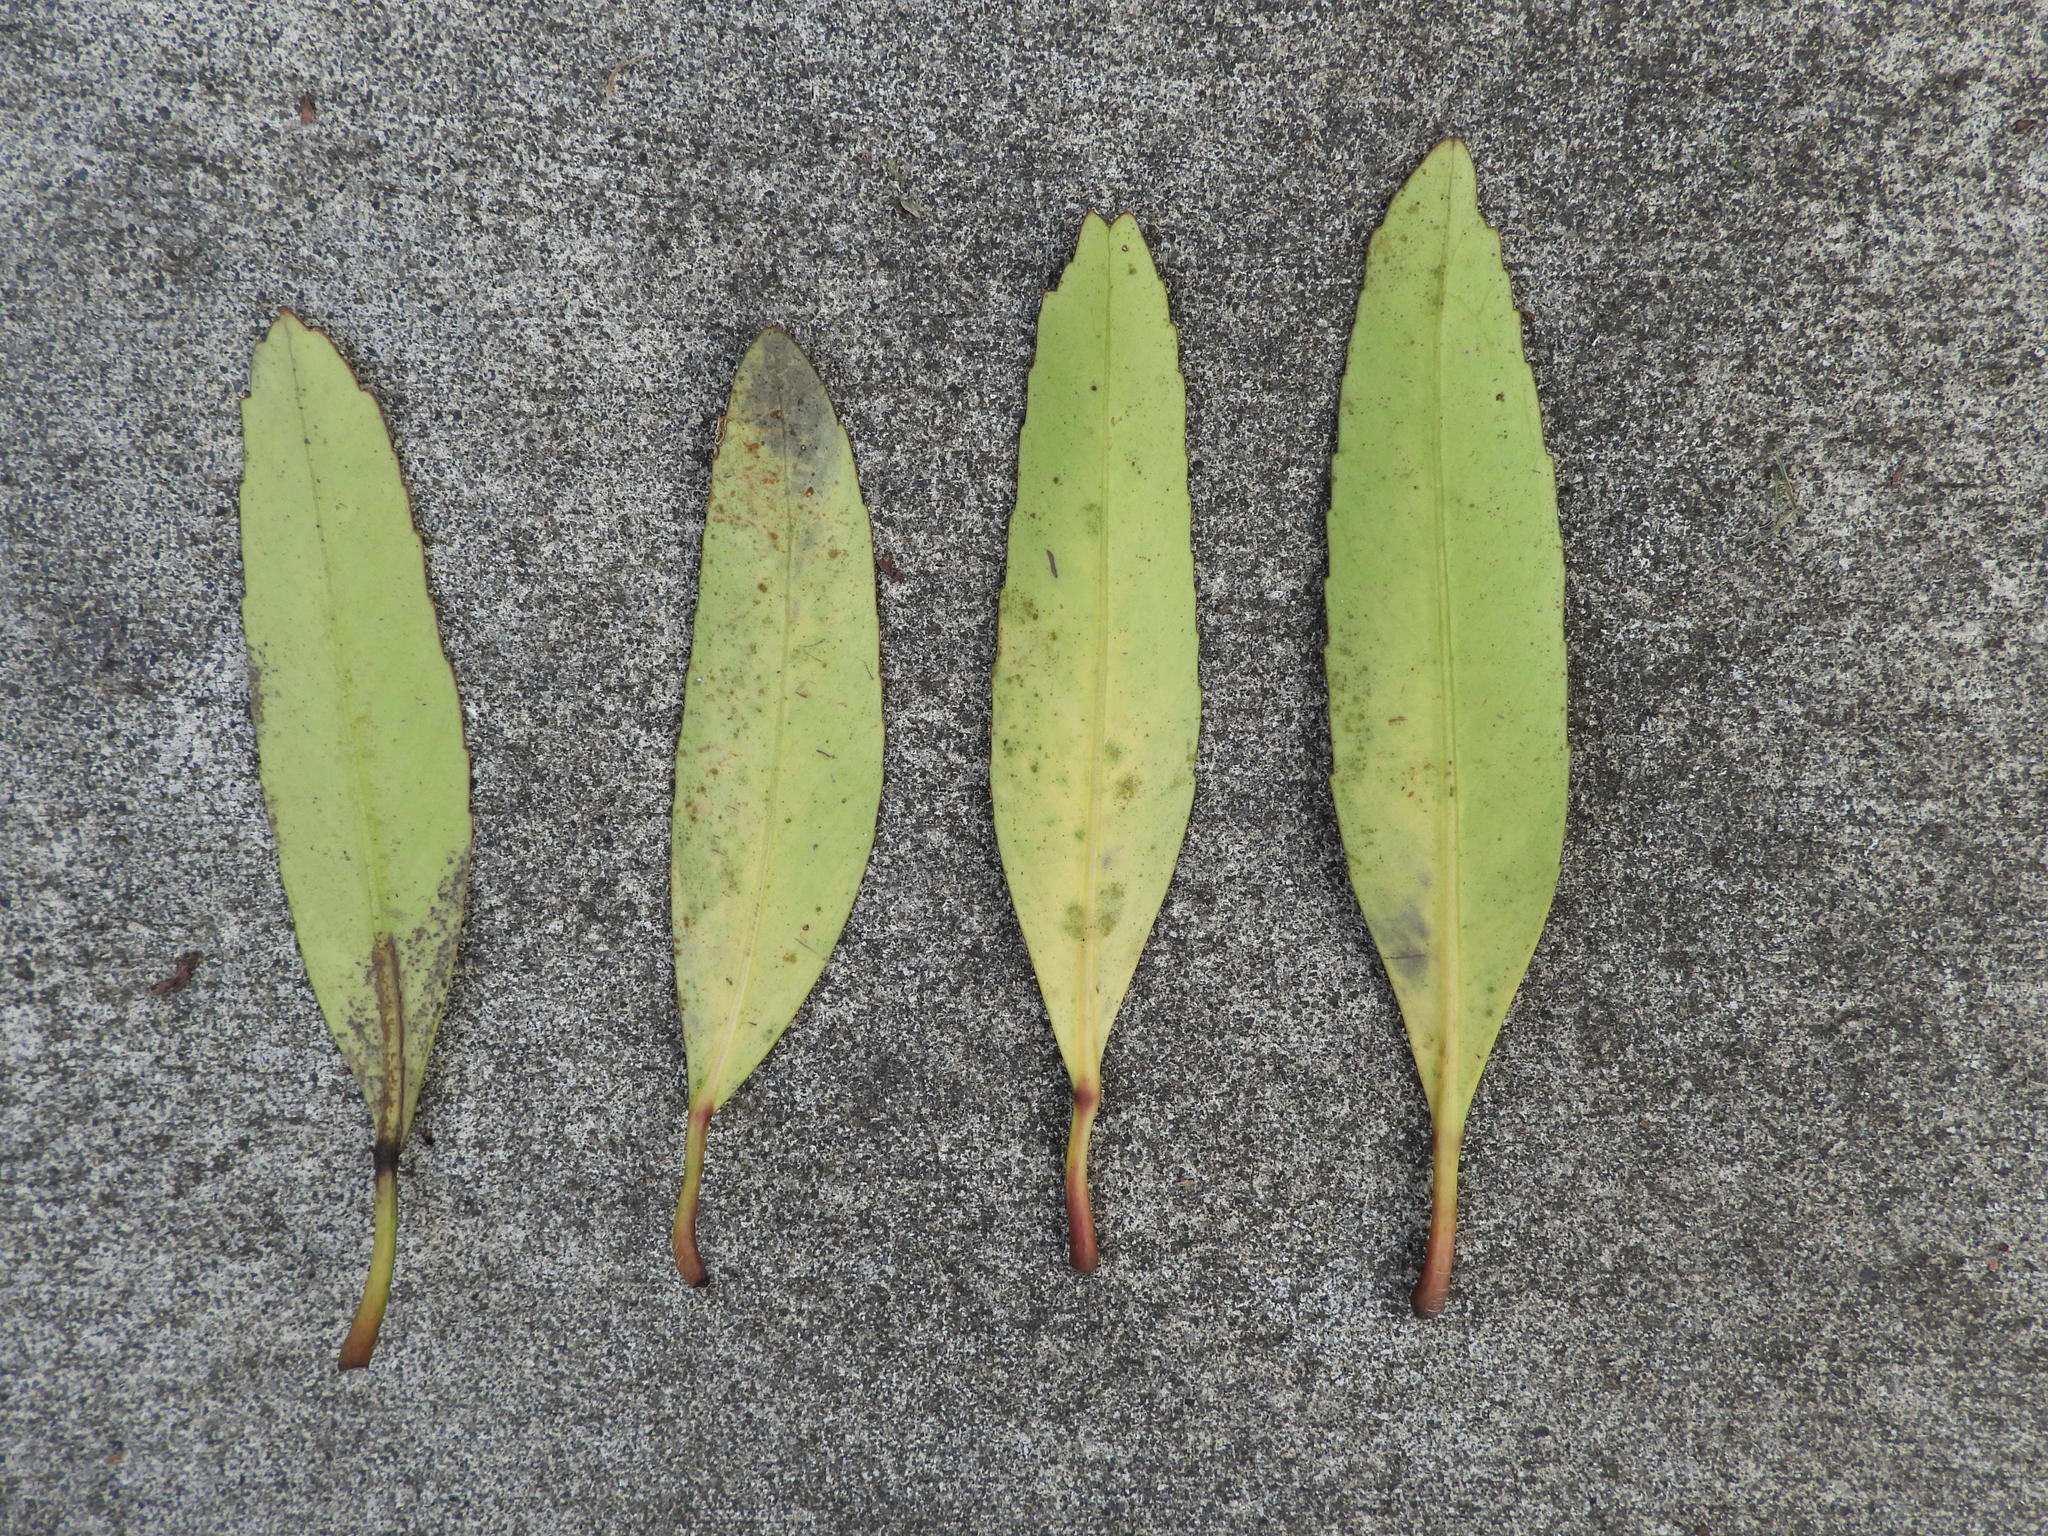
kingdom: Plantae
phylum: Tracheophyta
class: Magnoliopsida
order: Apiales
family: Araliaceae
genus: Pseudopanax
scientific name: Pseudopanax crassifolius
